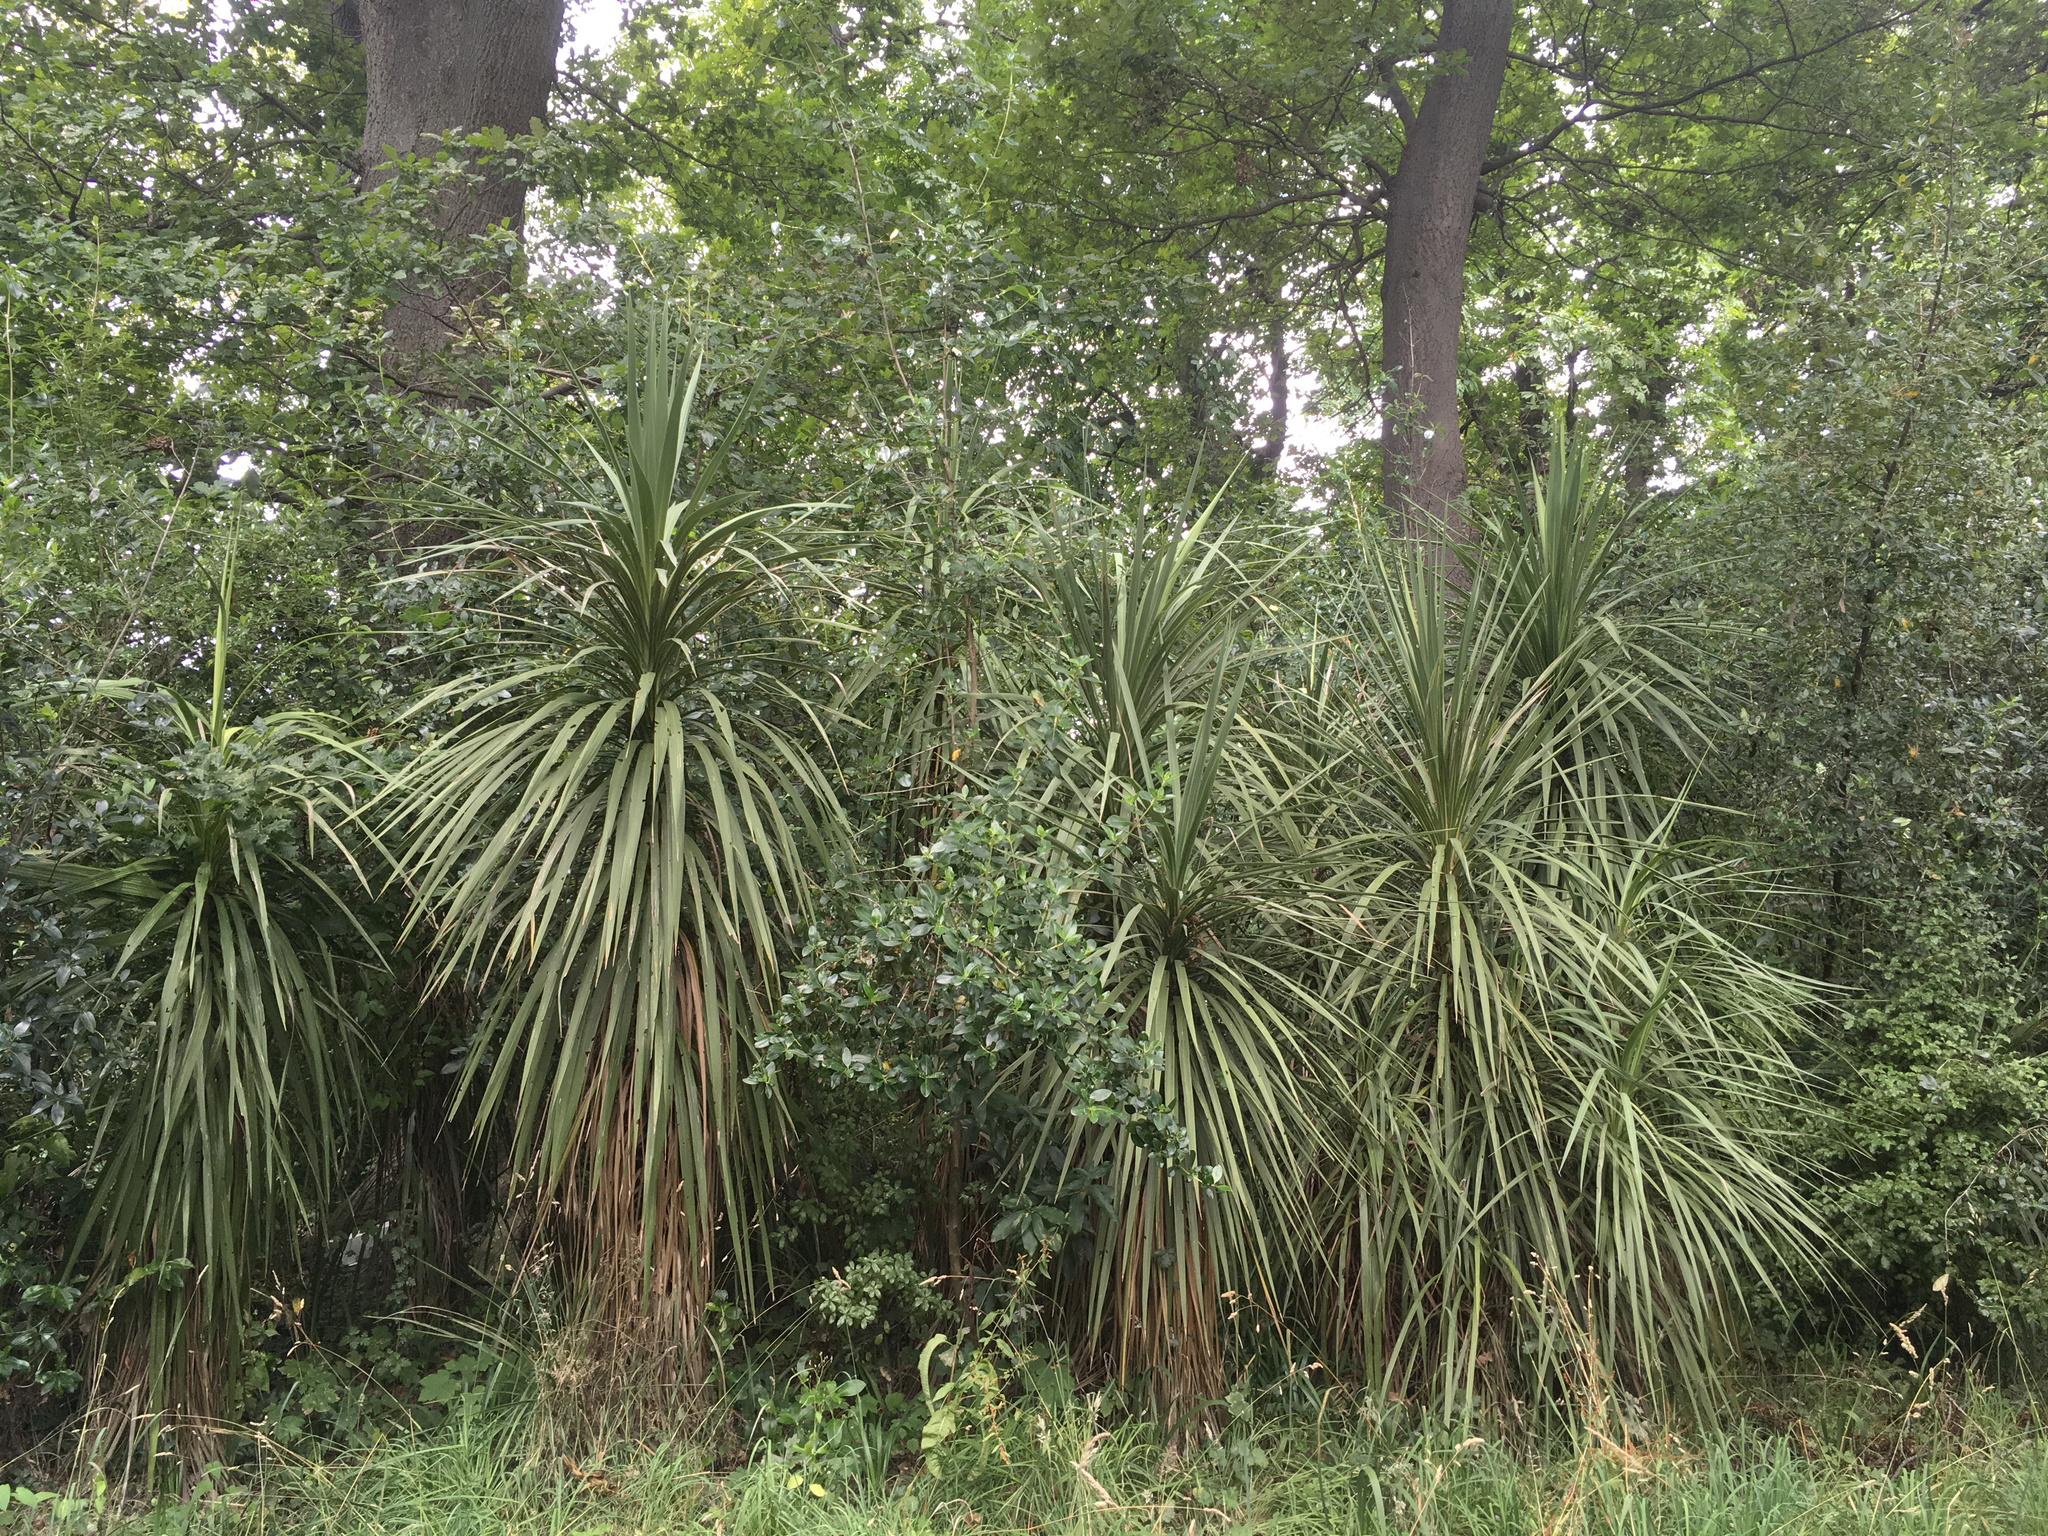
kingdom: Plantae
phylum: Tracheophyta
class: Liliopsida
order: Asparagales
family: Asparagaceae
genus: Cordyline
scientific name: Cordyline australis
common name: Cabbage-palm
